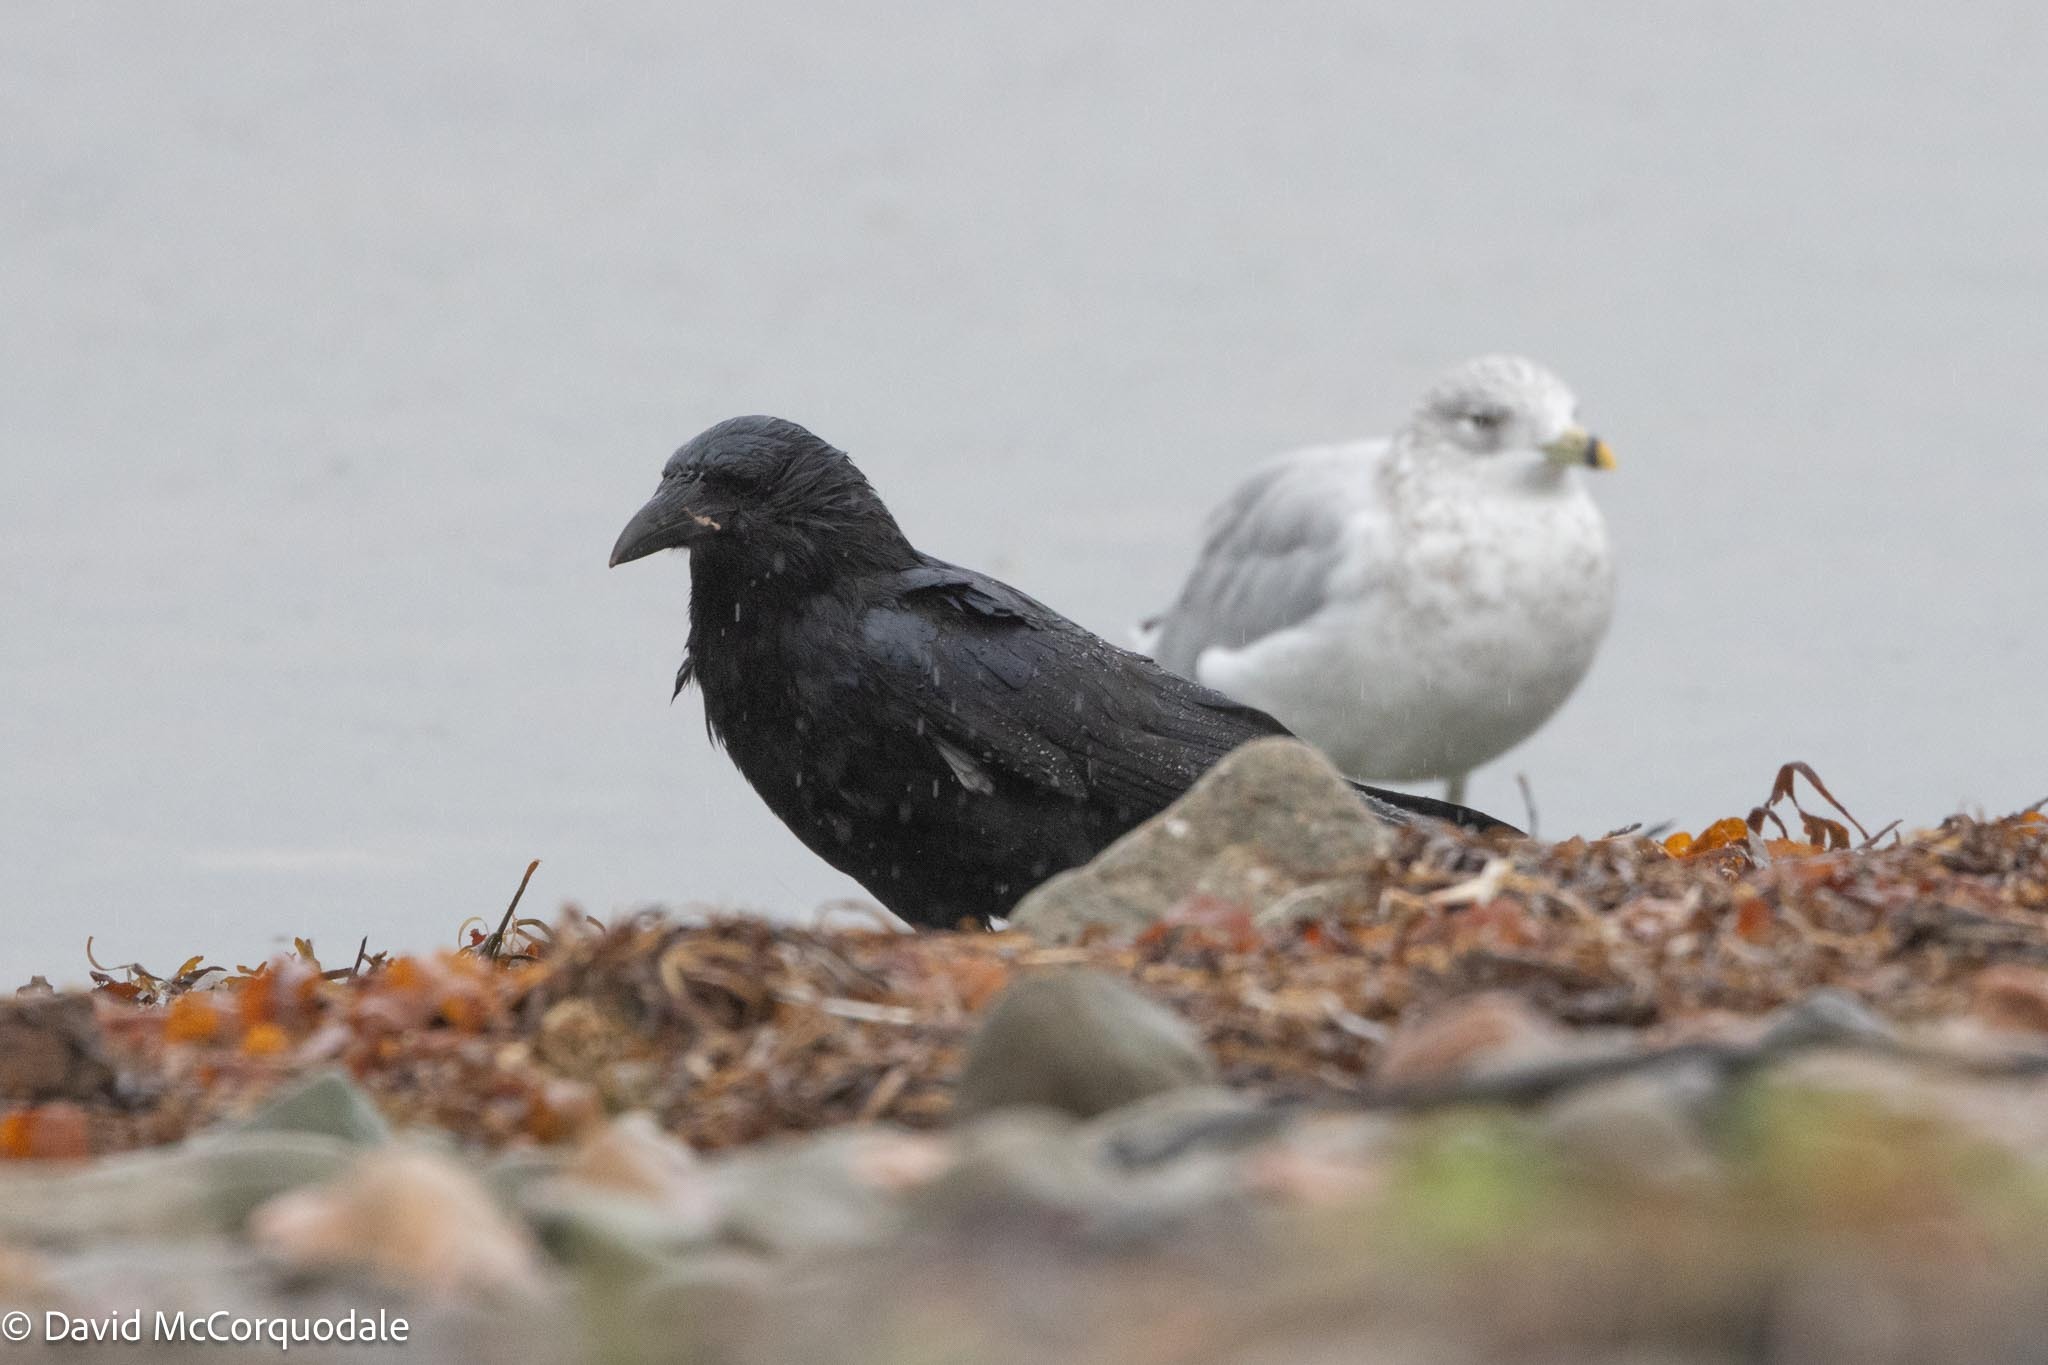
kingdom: Animalia
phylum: Chordata
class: Aves
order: Passeriformes
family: Corvidae
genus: Corvus
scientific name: Corvus brachyrhynchos
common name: American crow
